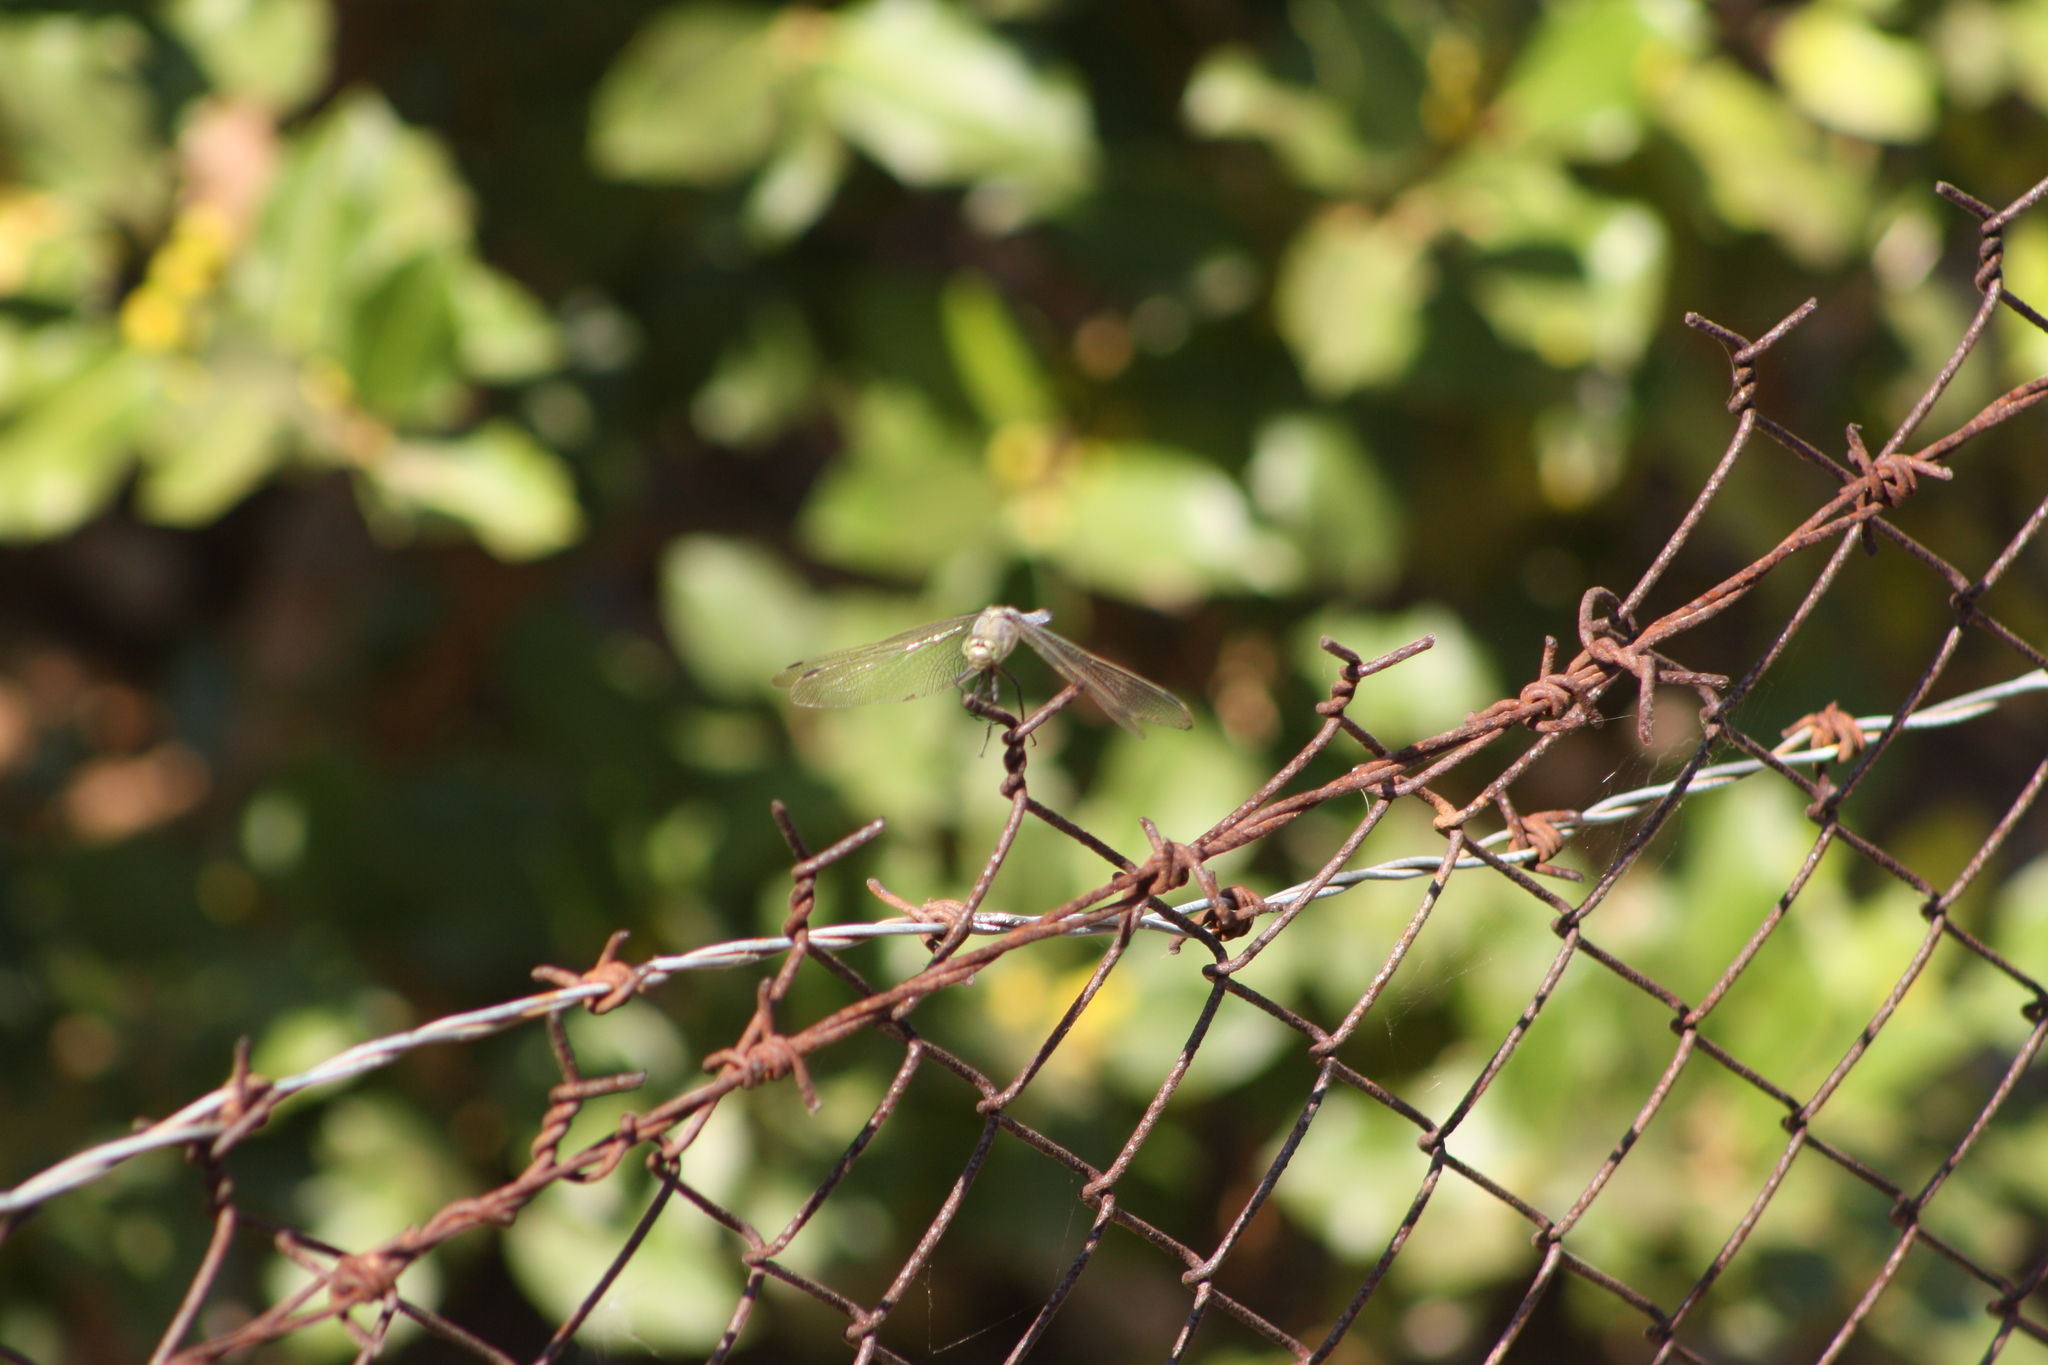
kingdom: Animalia
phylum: Arthropoda
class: Insecta
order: Odonata
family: Libellulidae
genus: Orthetrum
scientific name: Orthetrum cancellatum
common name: Black-tailed skimmer
